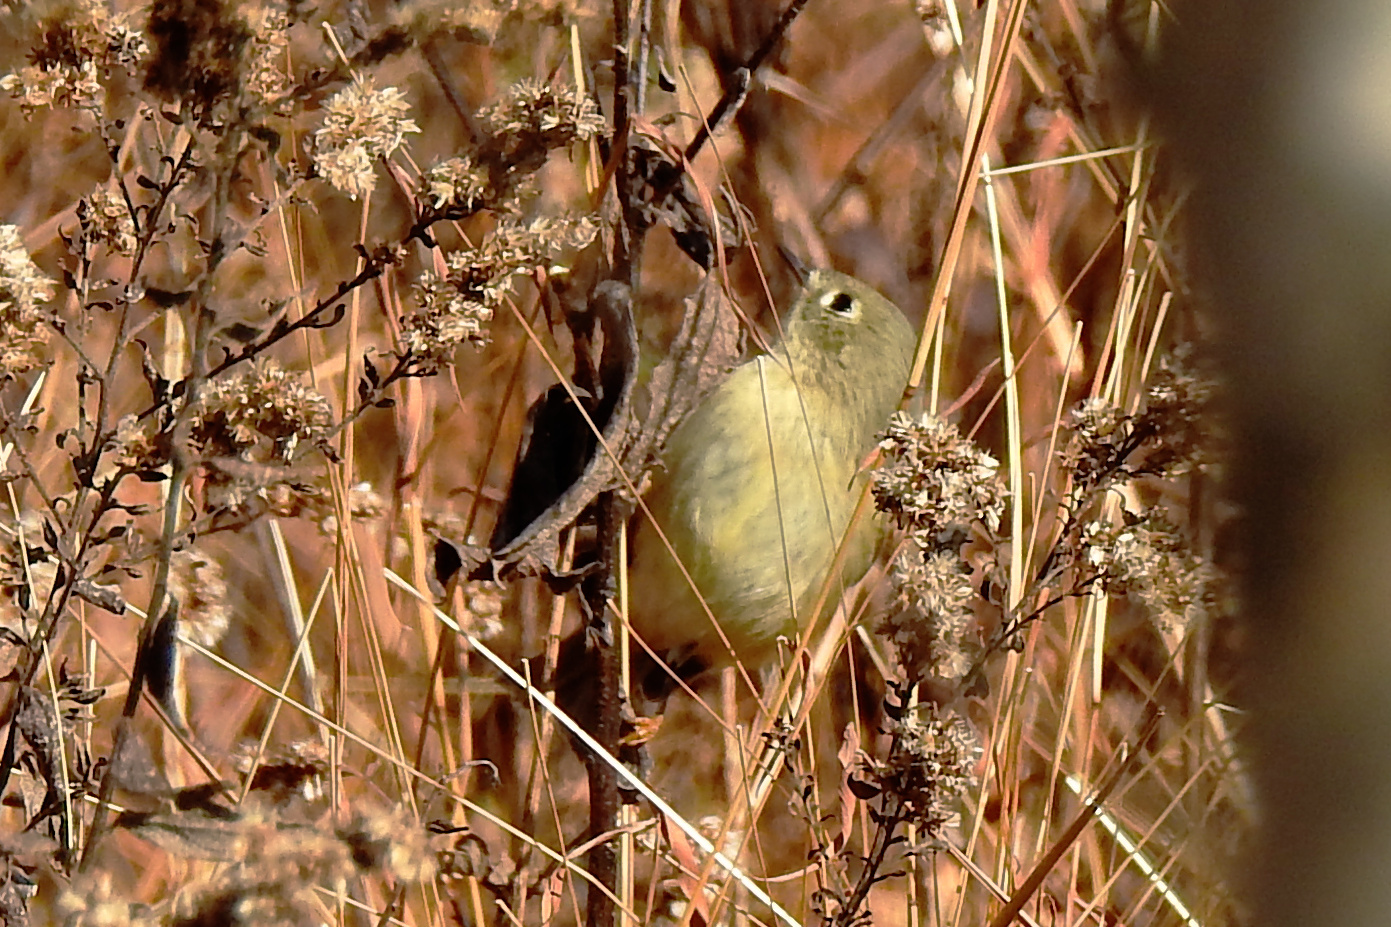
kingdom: Animalia
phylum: Chordata
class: Aves
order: Passeriformes
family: Regulidae
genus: Regulus
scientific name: Regulus calendula
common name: Ruby-crowned kinglet
